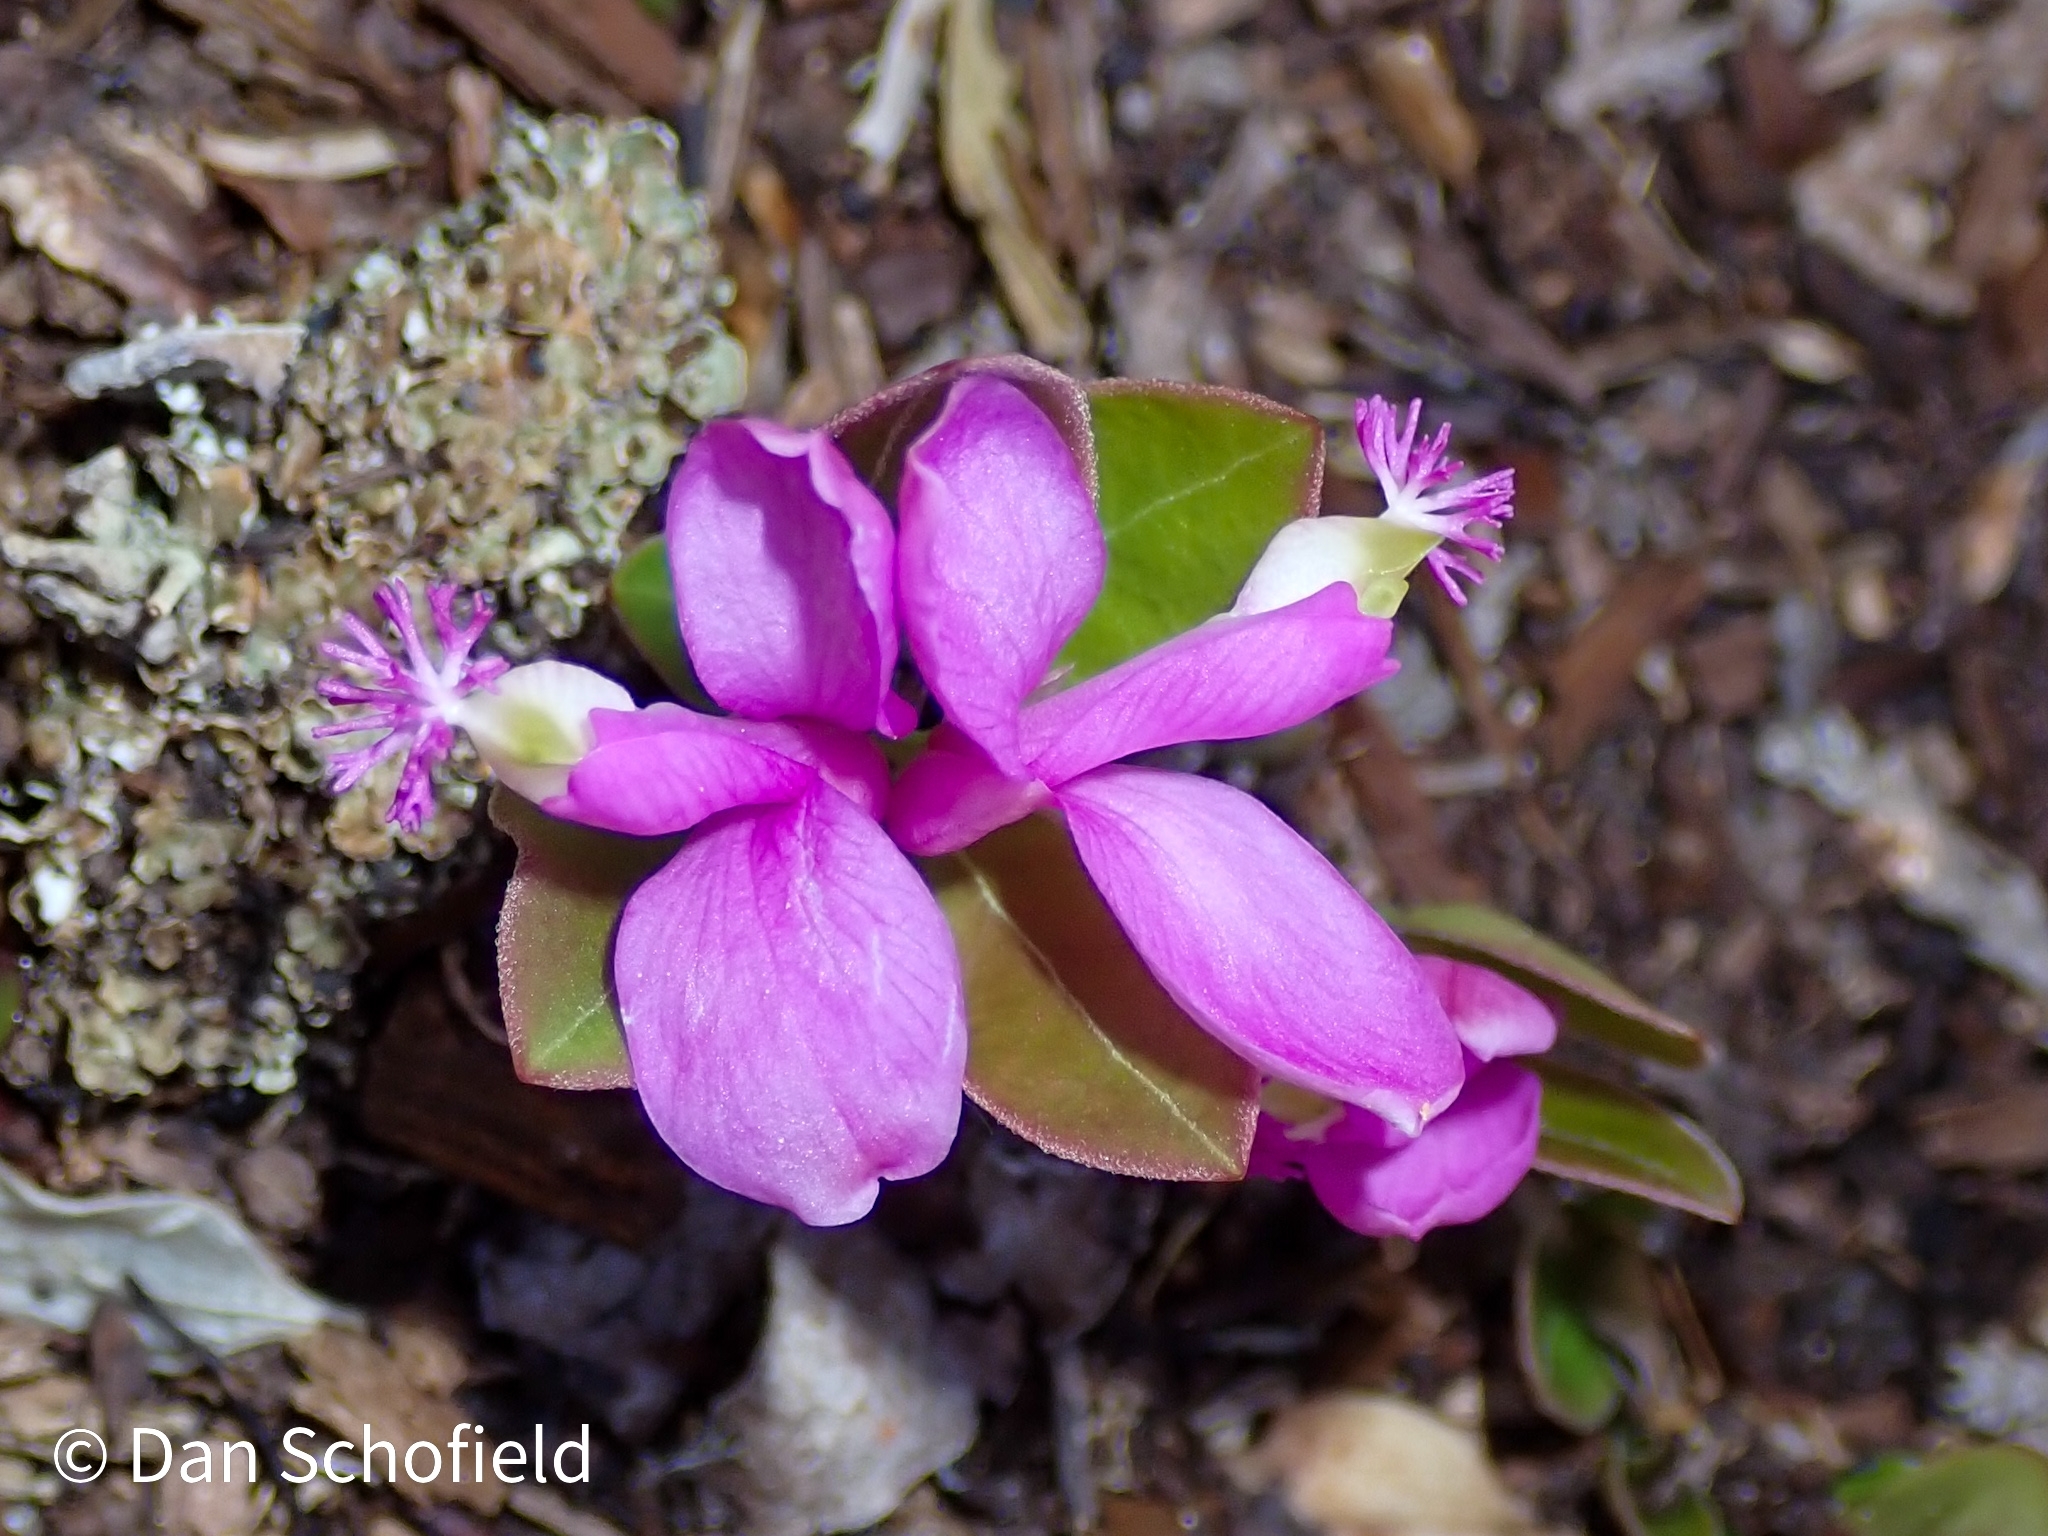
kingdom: Plantae
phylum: Tracheophyta
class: Magnoliopsida
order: Fabales
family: Polygalaceae
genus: Polygaloides
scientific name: Polygaloides paucifolia
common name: Bird-on-the-wing
